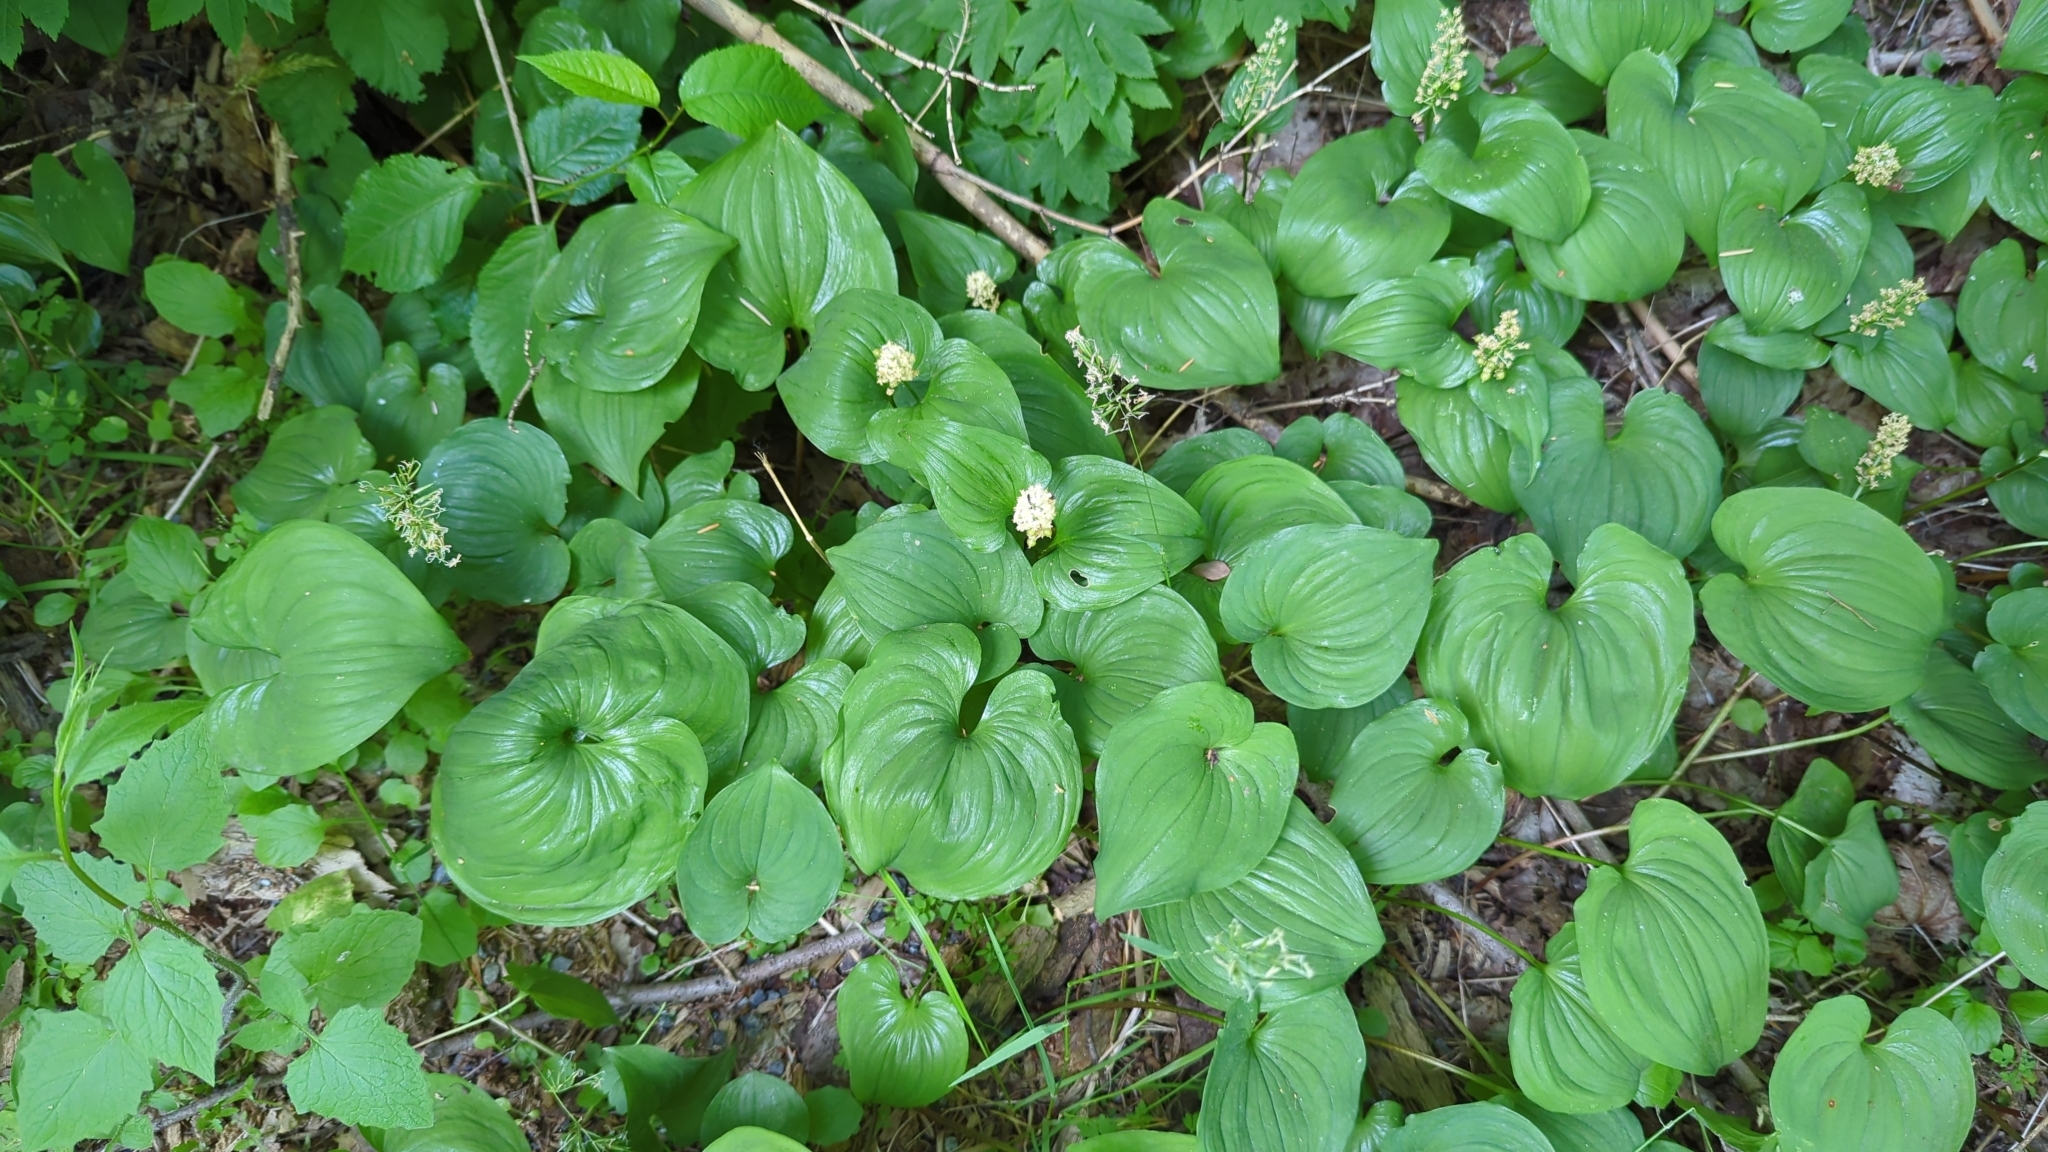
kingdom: Plantae
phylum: Tracheophyta
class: Liliopsida
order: Asparagales
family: Asparagaceae
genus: Maianthemum
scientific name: Maianthemum dilatatum
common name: False lily-of-the-valley
